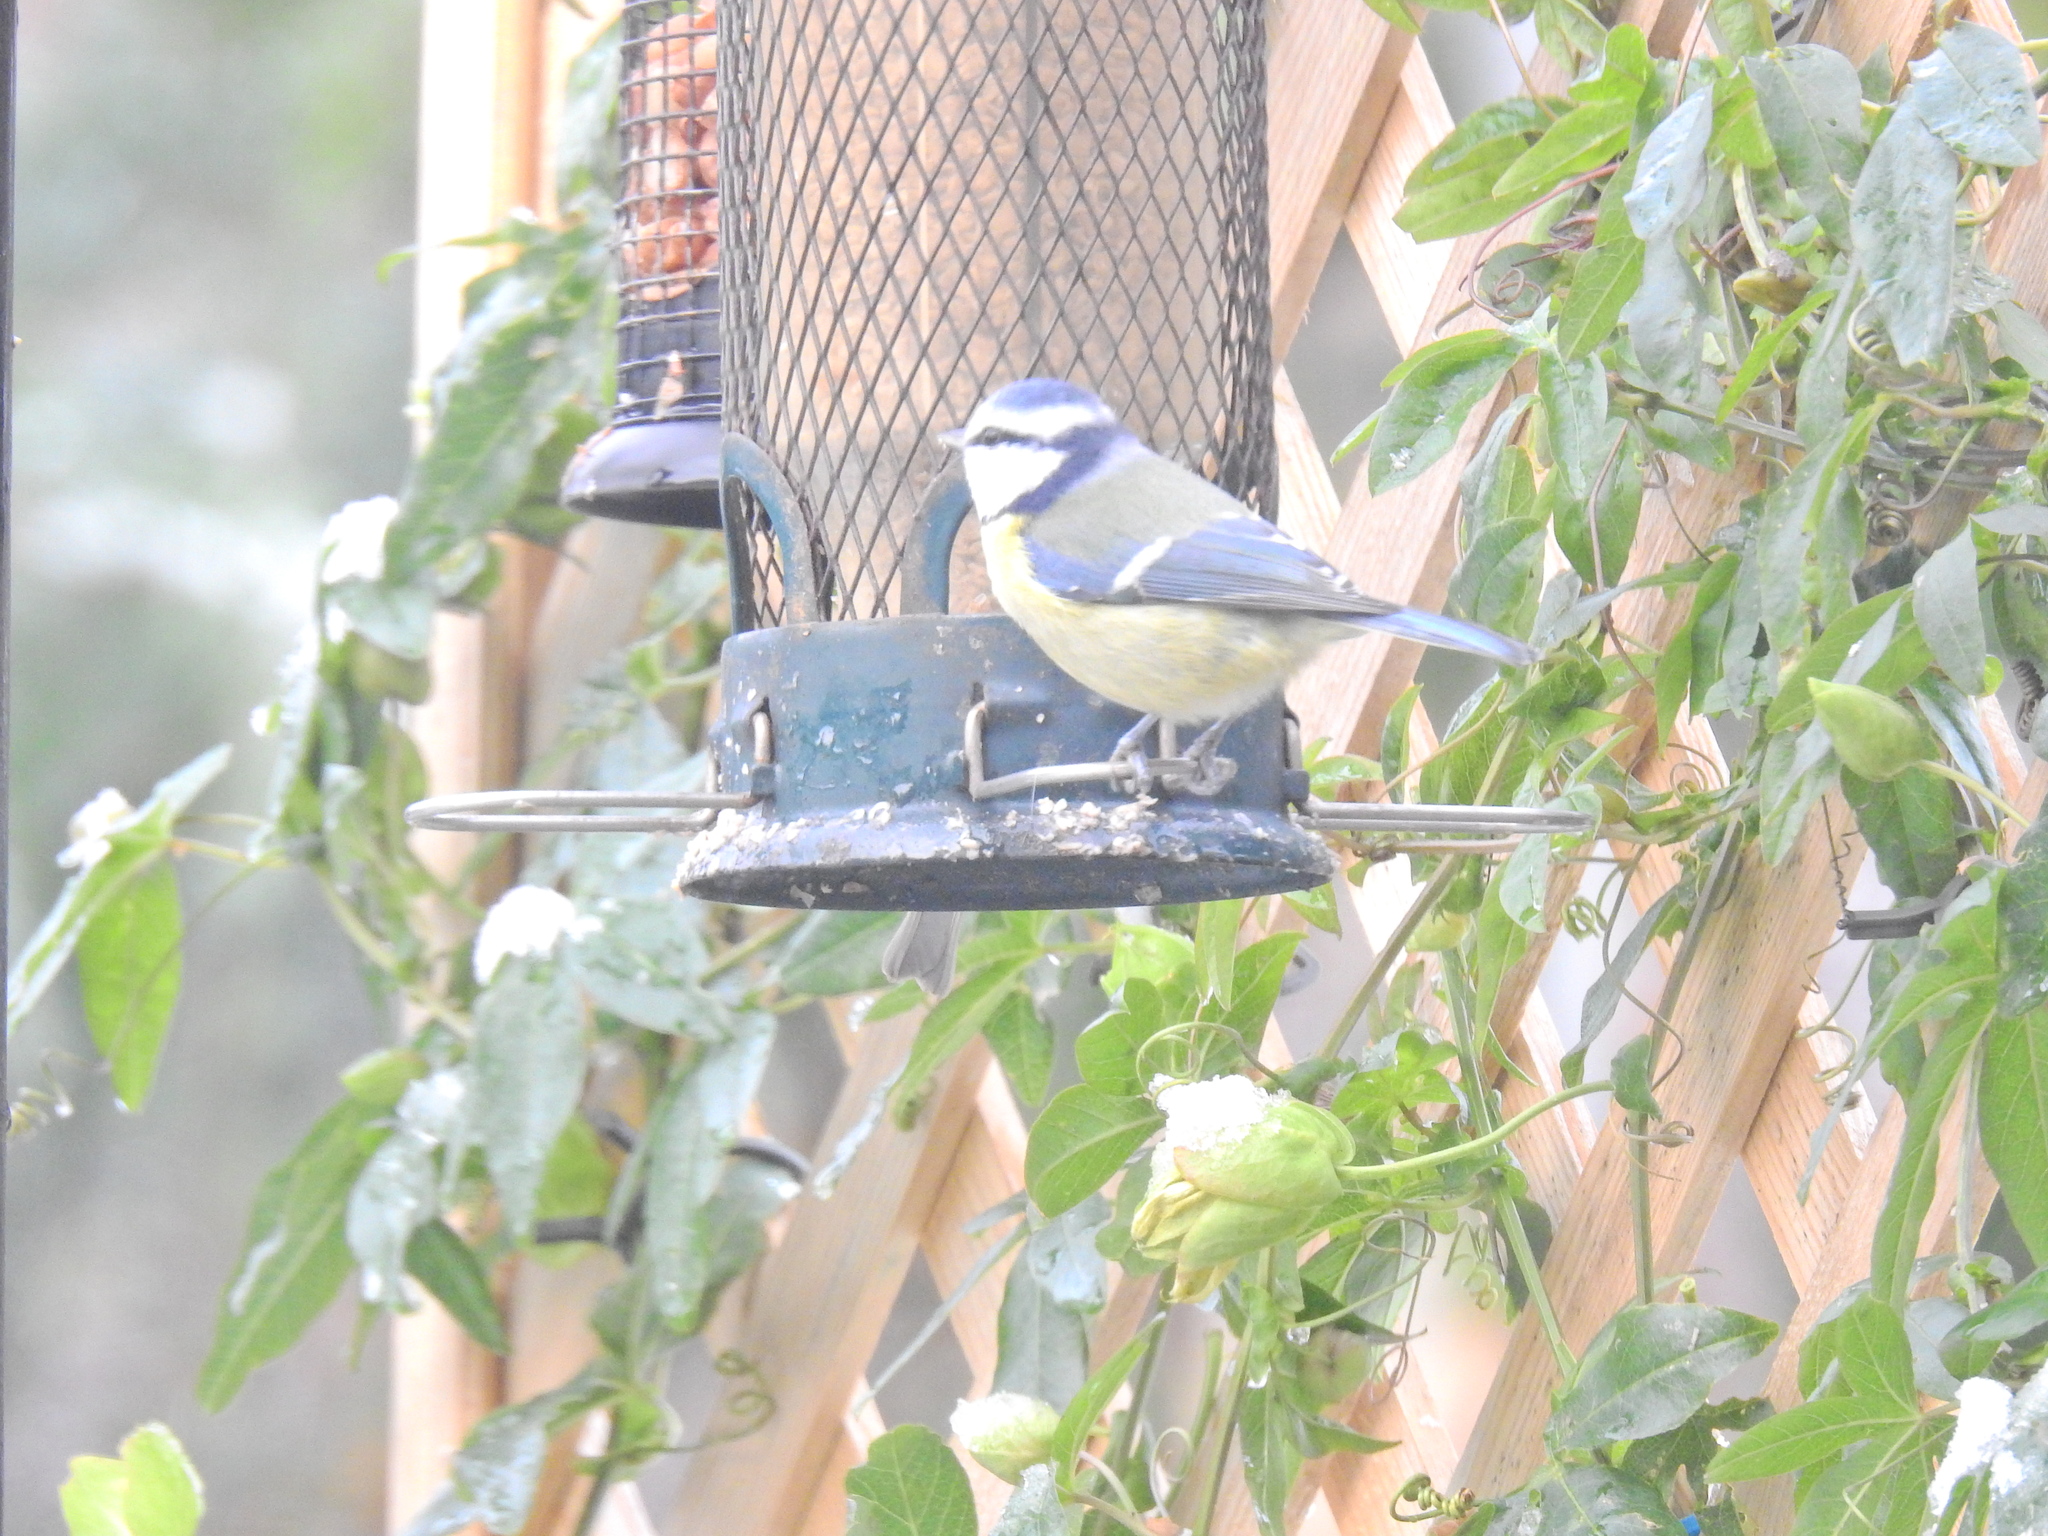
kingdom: Animalia
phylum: Chordata
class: Aves
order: Passeriformes
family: Paridae
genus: Cyanistes
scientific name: Cyanistes caeruleus
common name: Eurasian blue tit
